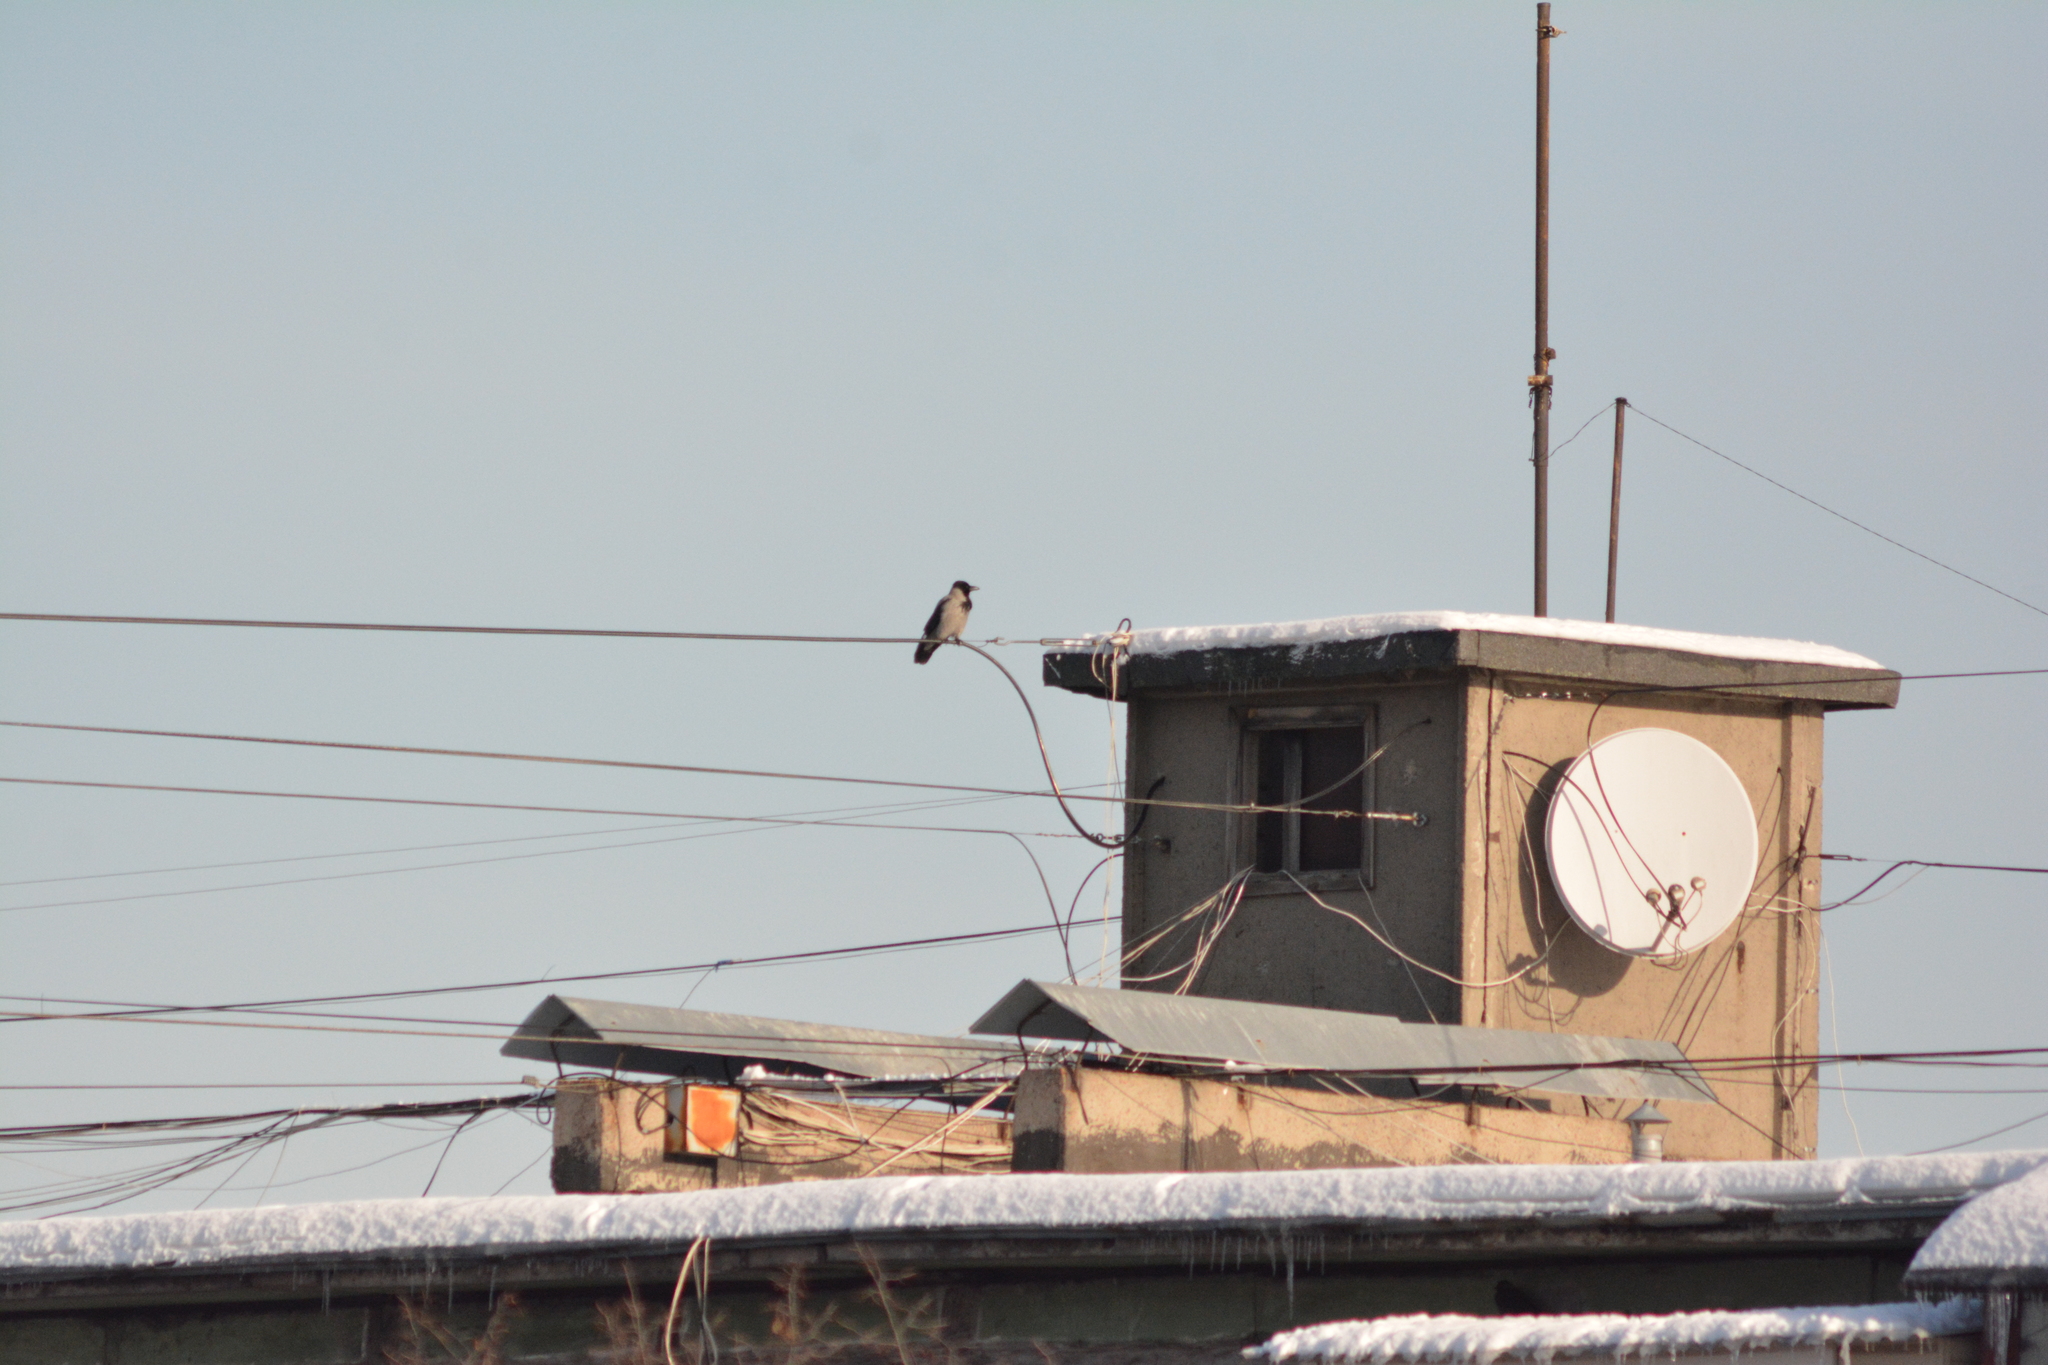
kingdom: Animalia
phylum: Chordata
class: Aves
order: Passeriformes
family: Corvidae
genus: Corvus
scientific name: Corvus cornix
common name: Hooded crow
